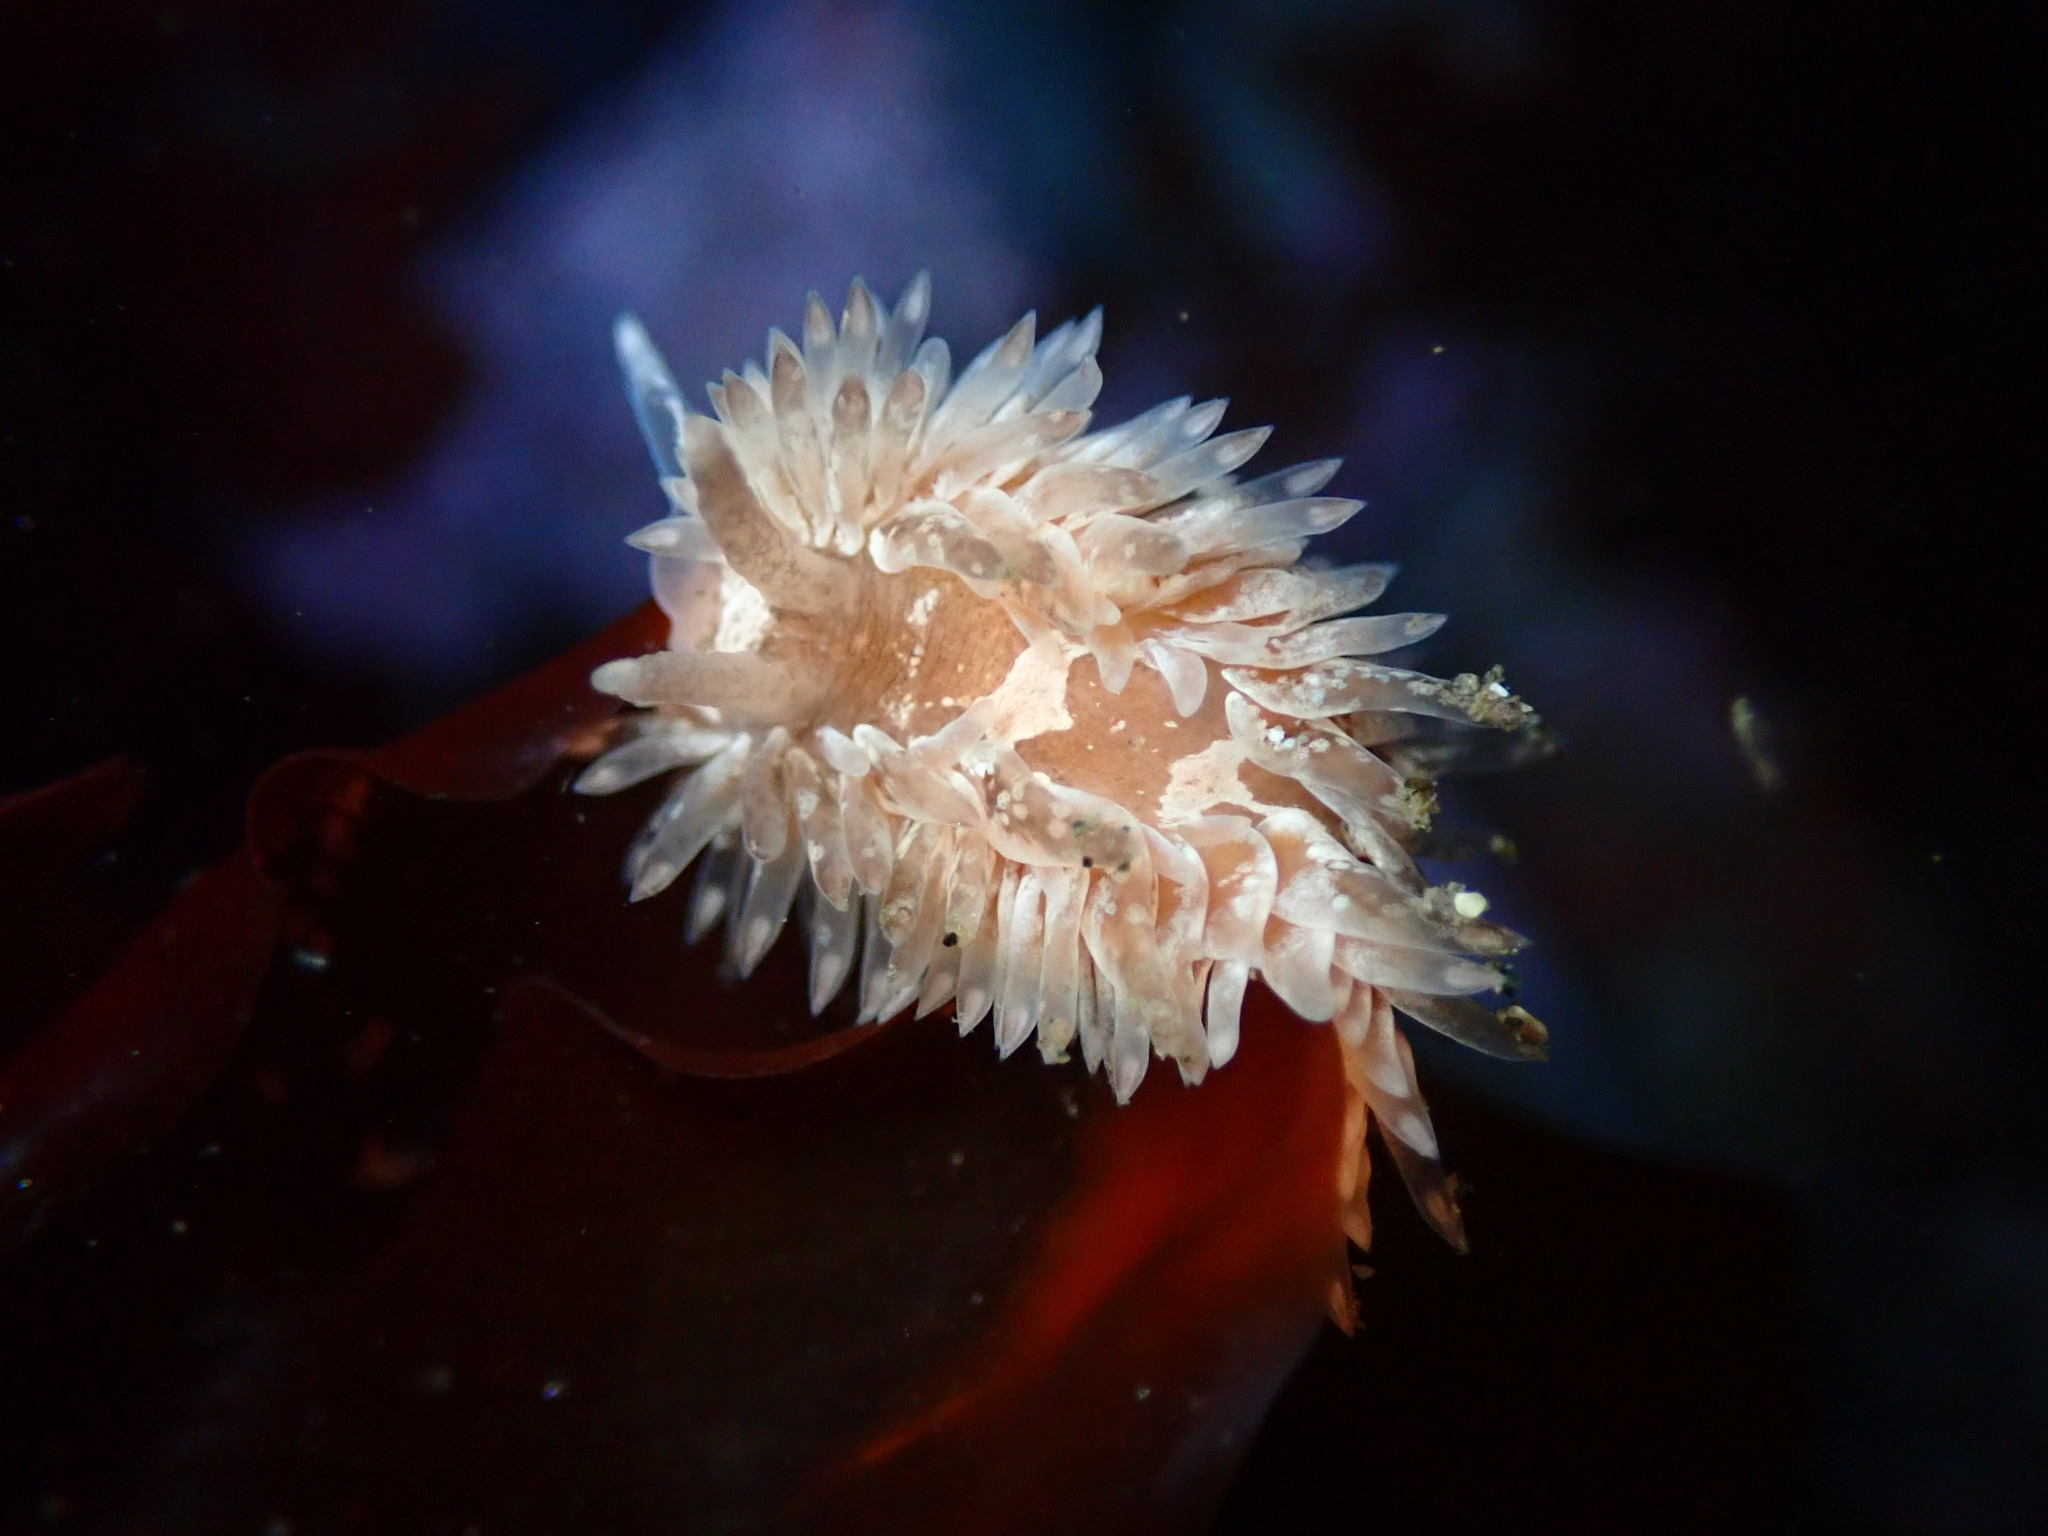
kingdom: Animalia
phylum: Mollusca
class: Gastropoda
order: Nudibranchia
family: Aeolidiidae
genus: Aeolidia
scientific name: Aeolidia loui
